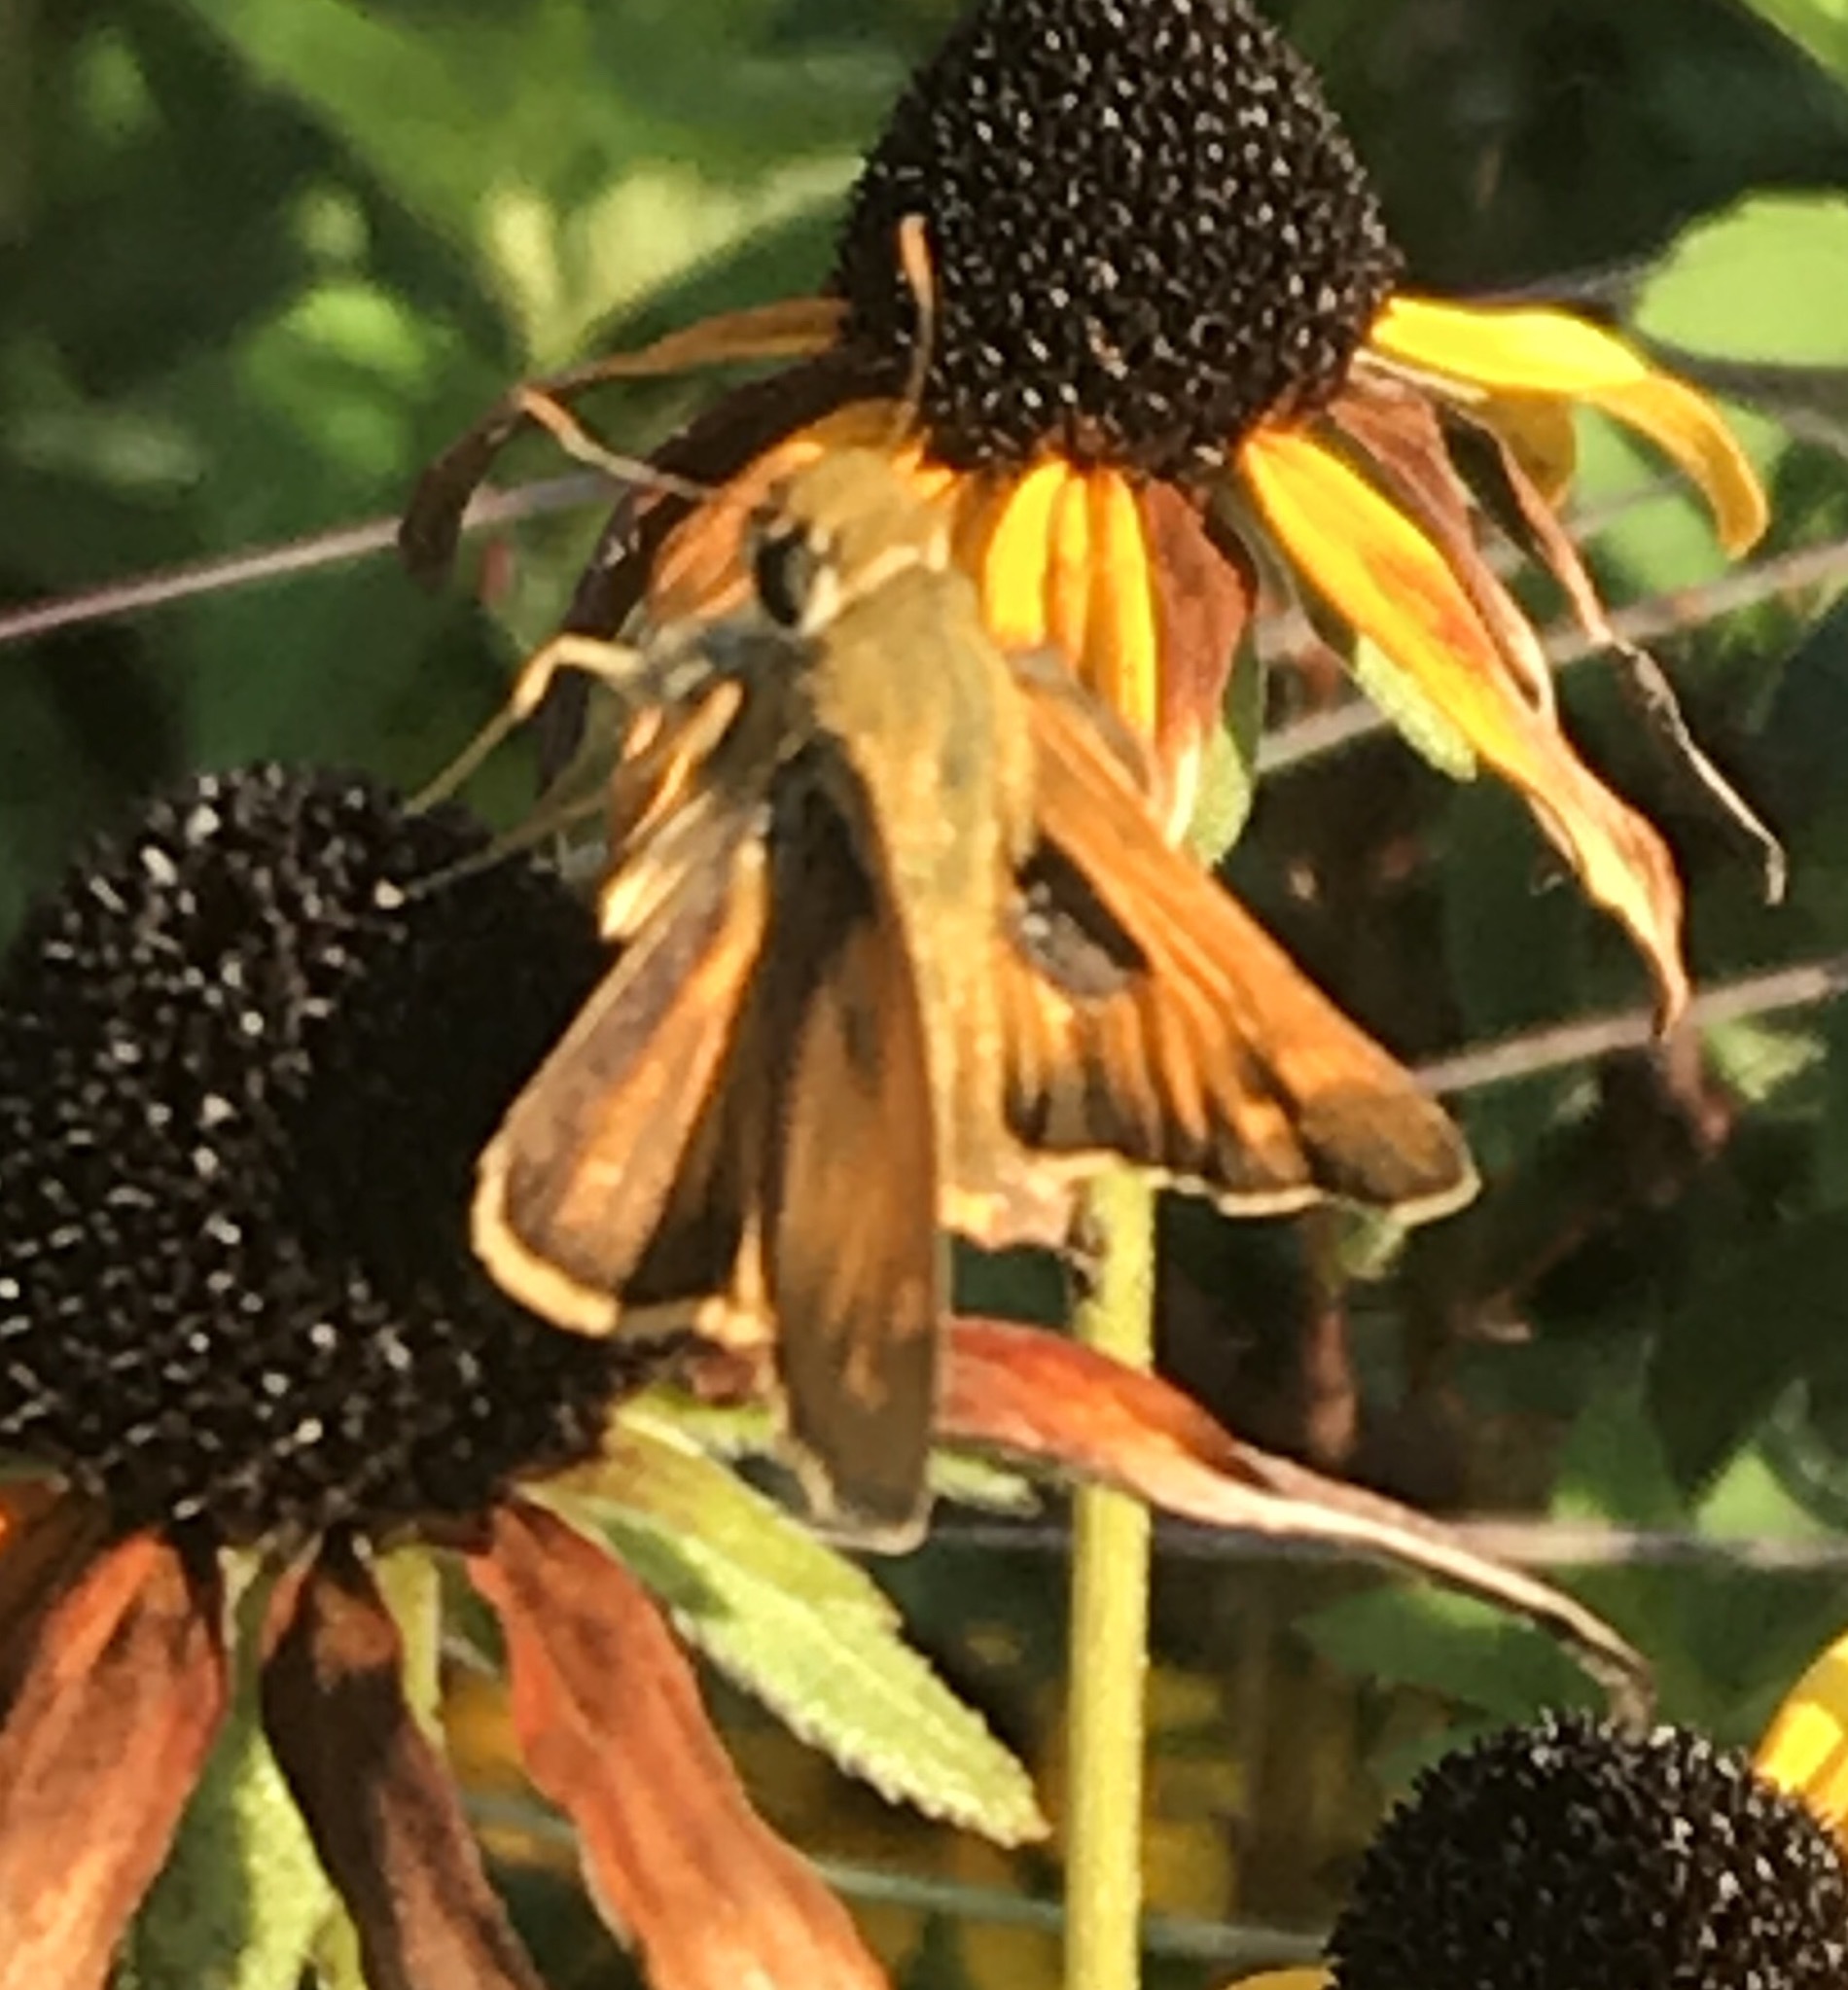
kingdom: Animalia
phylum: Arthropoda
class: Insecta
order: Lepidoptera
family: Hesperiidae
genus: Atalopedes
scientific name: Atalopedes
